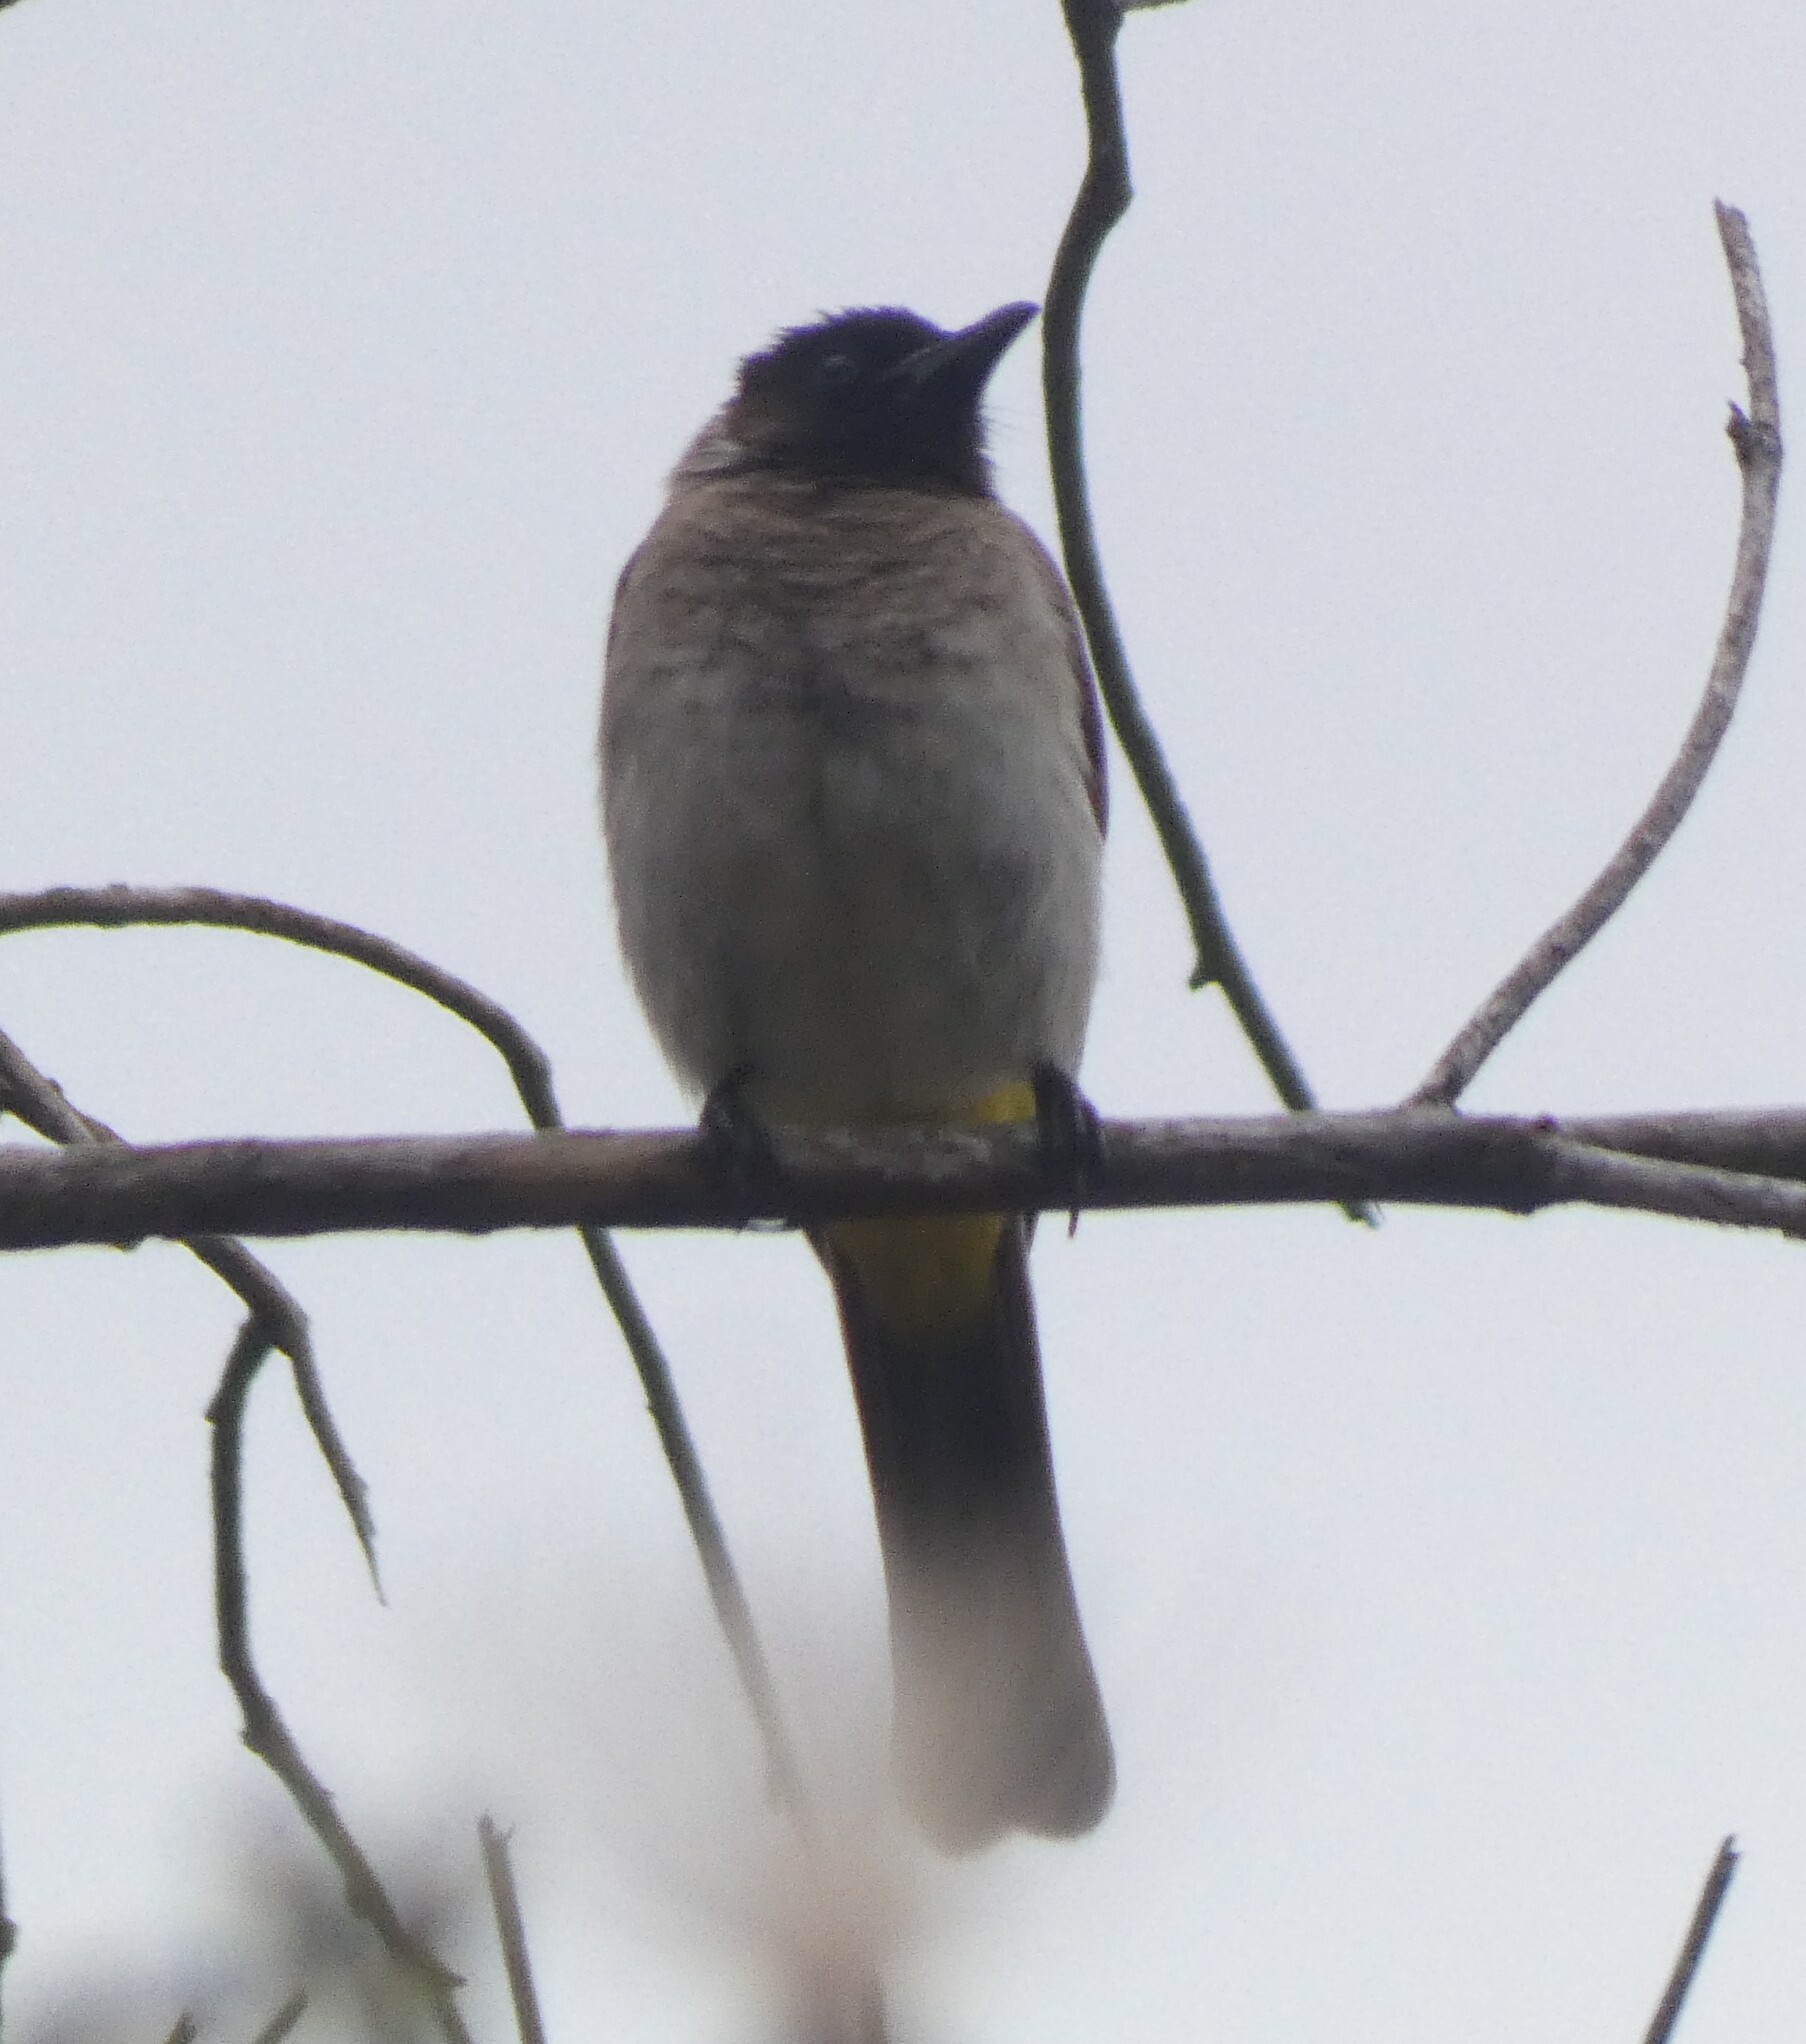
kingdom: Animalia
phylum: Chordata
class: Aves
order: Passeriformes
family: Pycnonotidae
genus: Pycnonotus
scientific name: Pycnonotus barbatus
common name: Common bulbul
